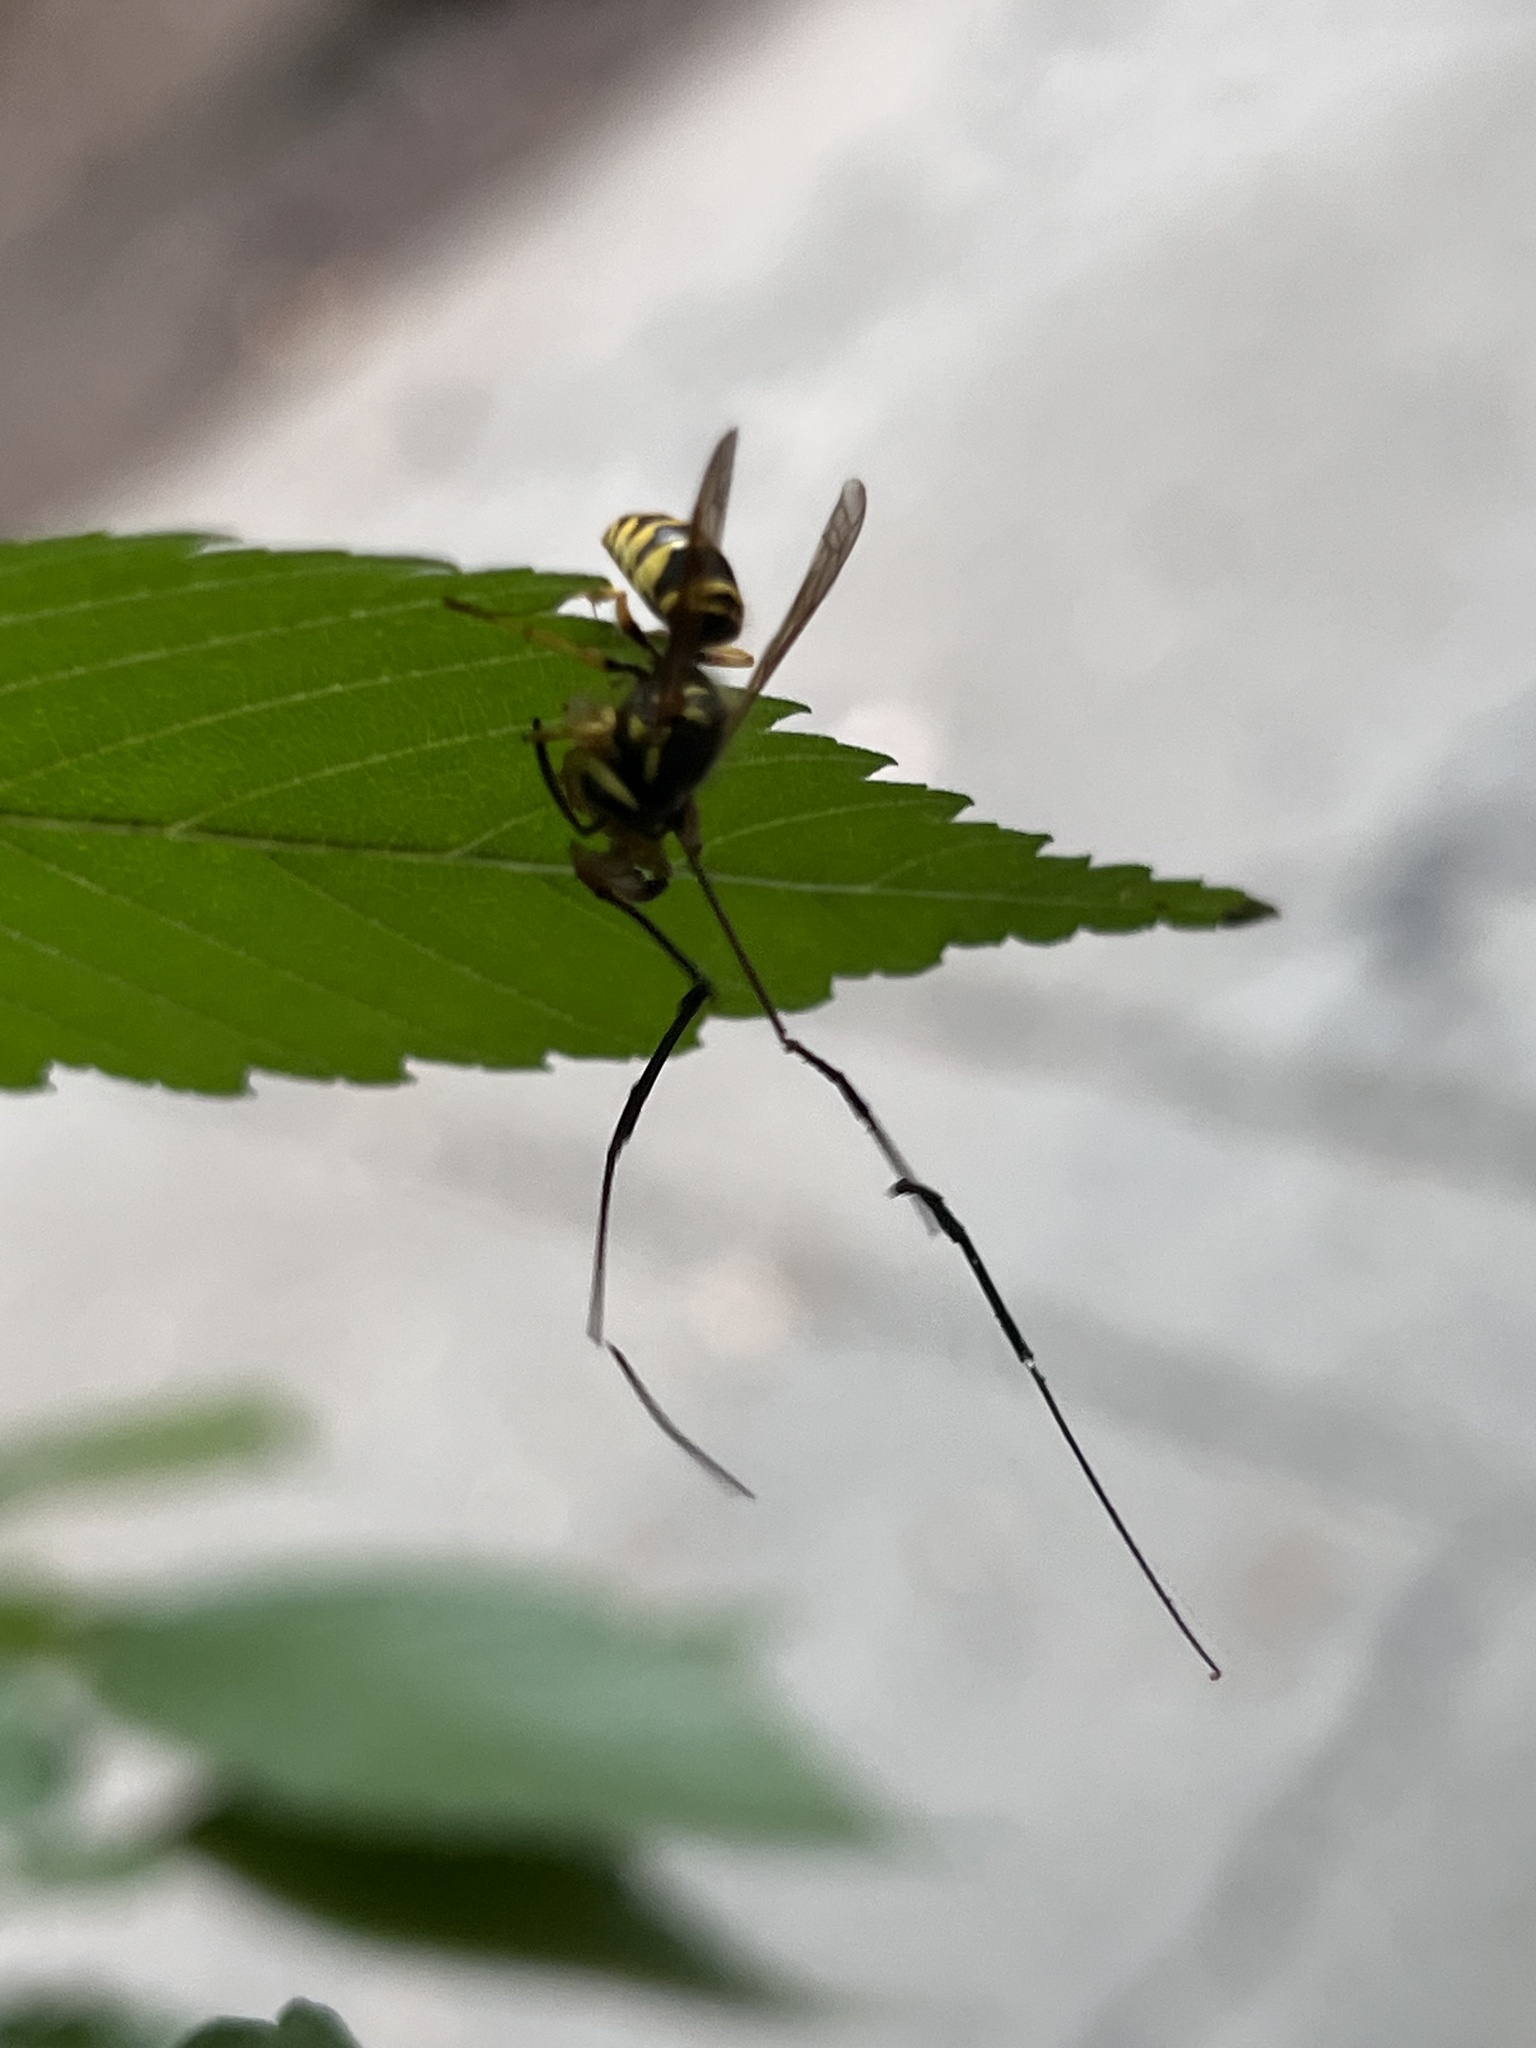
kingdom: Animalia
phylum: Arthropoda
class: Insecta
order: Hymenoptera
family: Vespidae
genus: Vespula
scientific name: Vespula maculifrons
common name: Eastern yellowjacket
